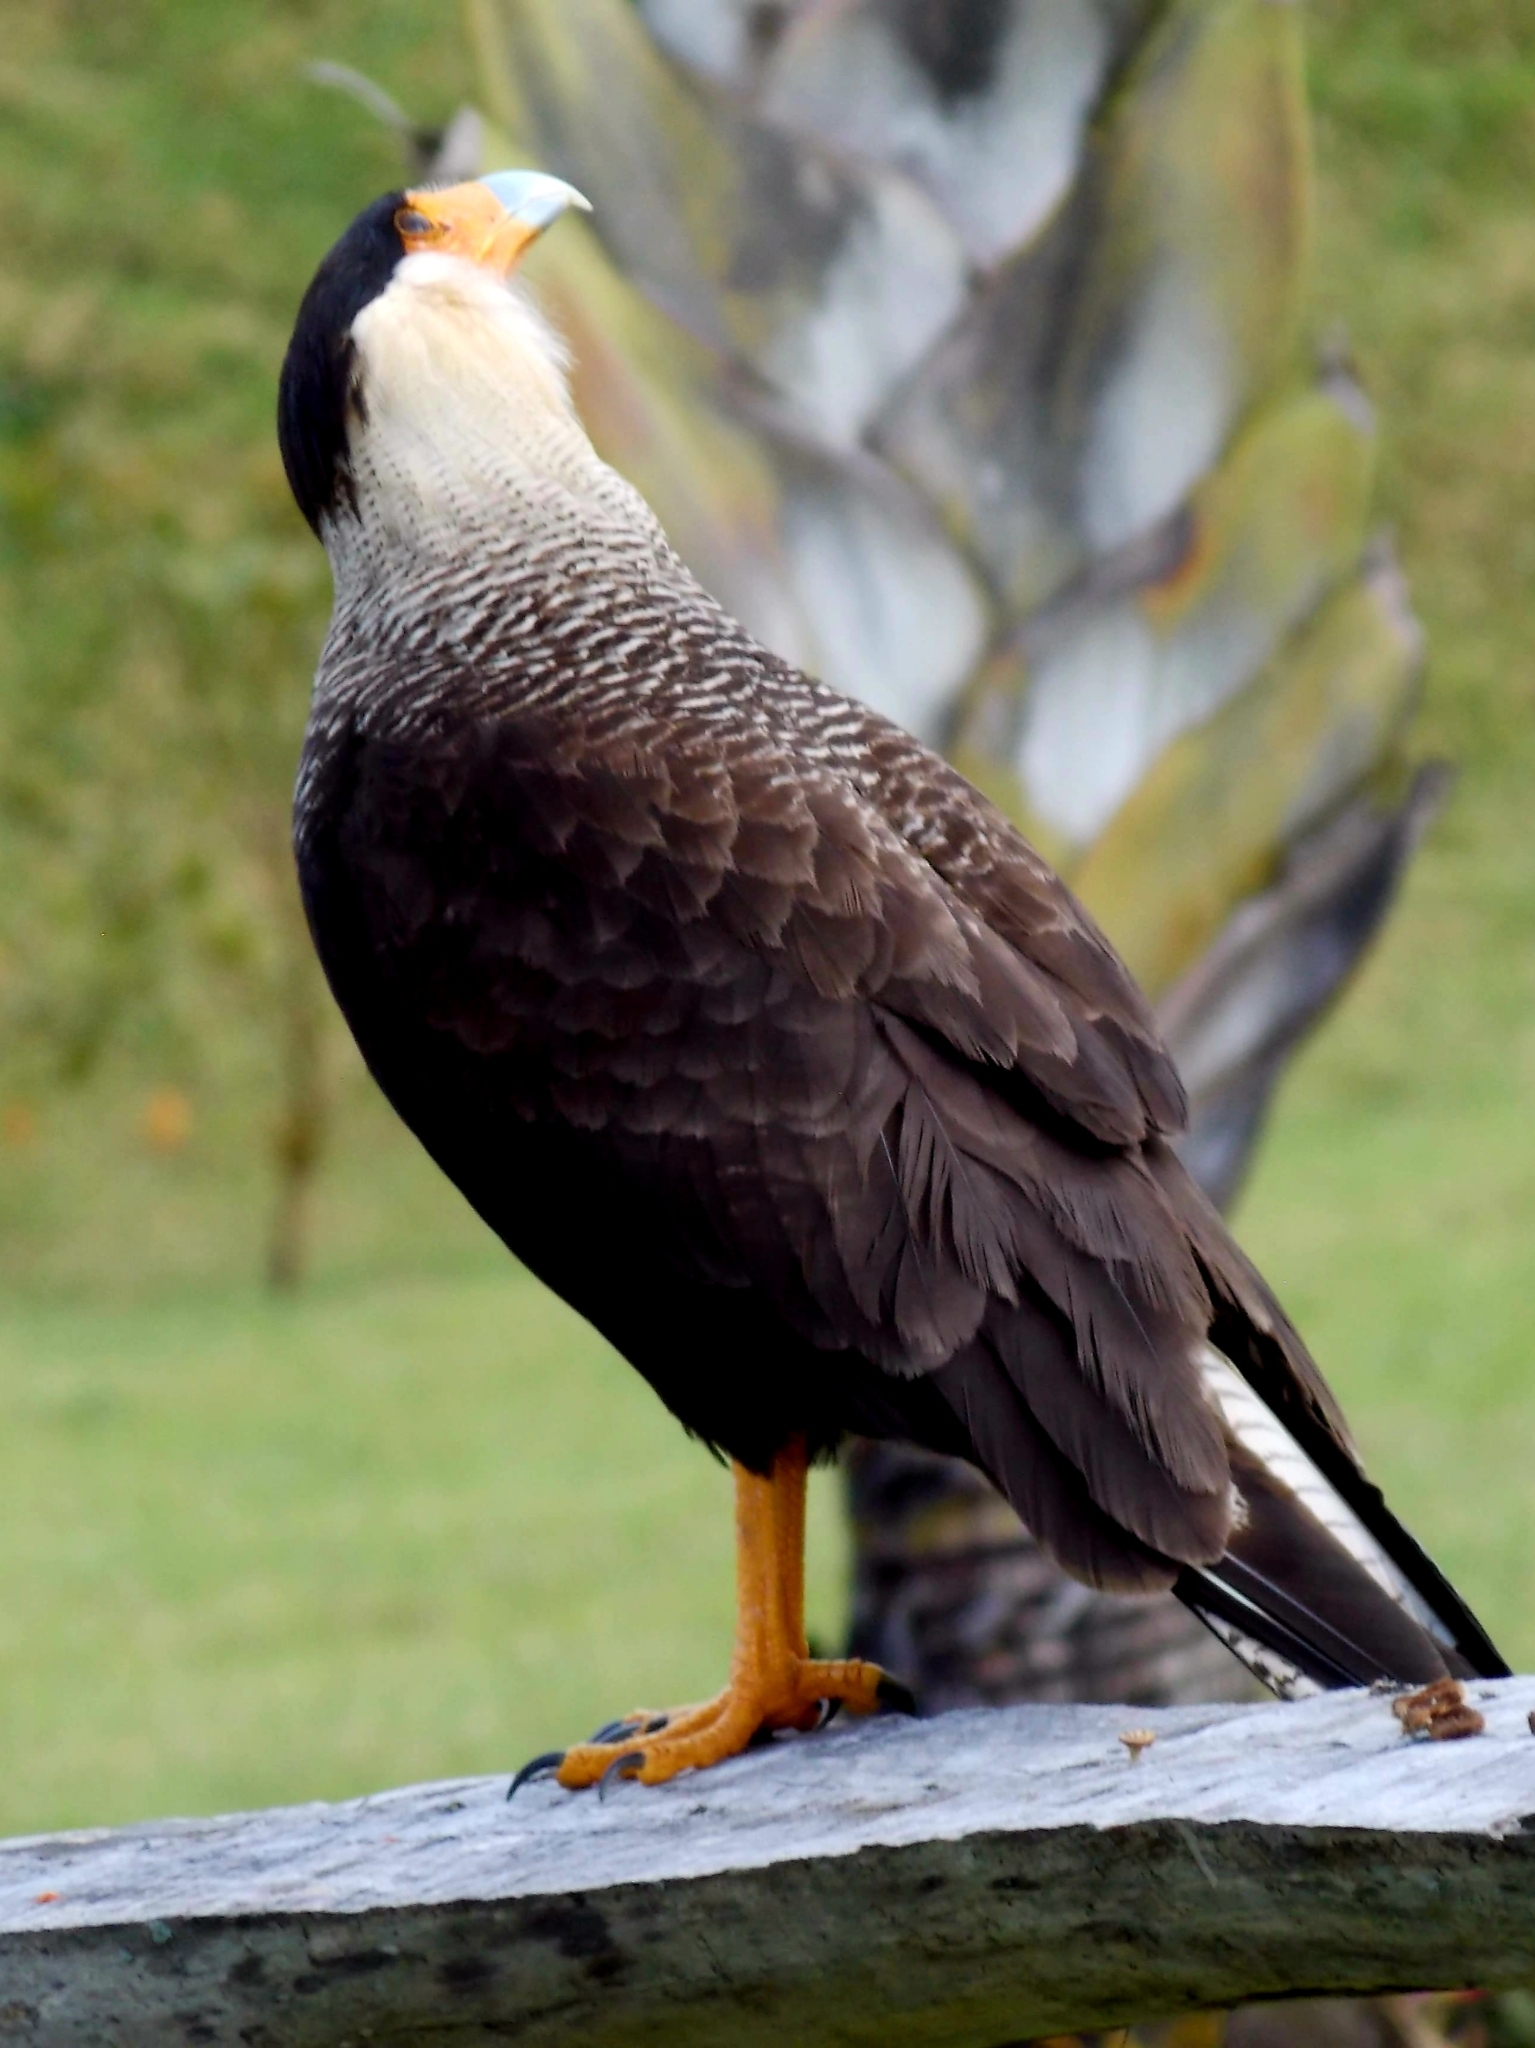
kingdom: Animalia
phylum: Chordata
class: Aves
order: Falconiformes
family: Falconidae
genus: Caracara
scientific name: Caracara plancus
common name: Southern caracara
